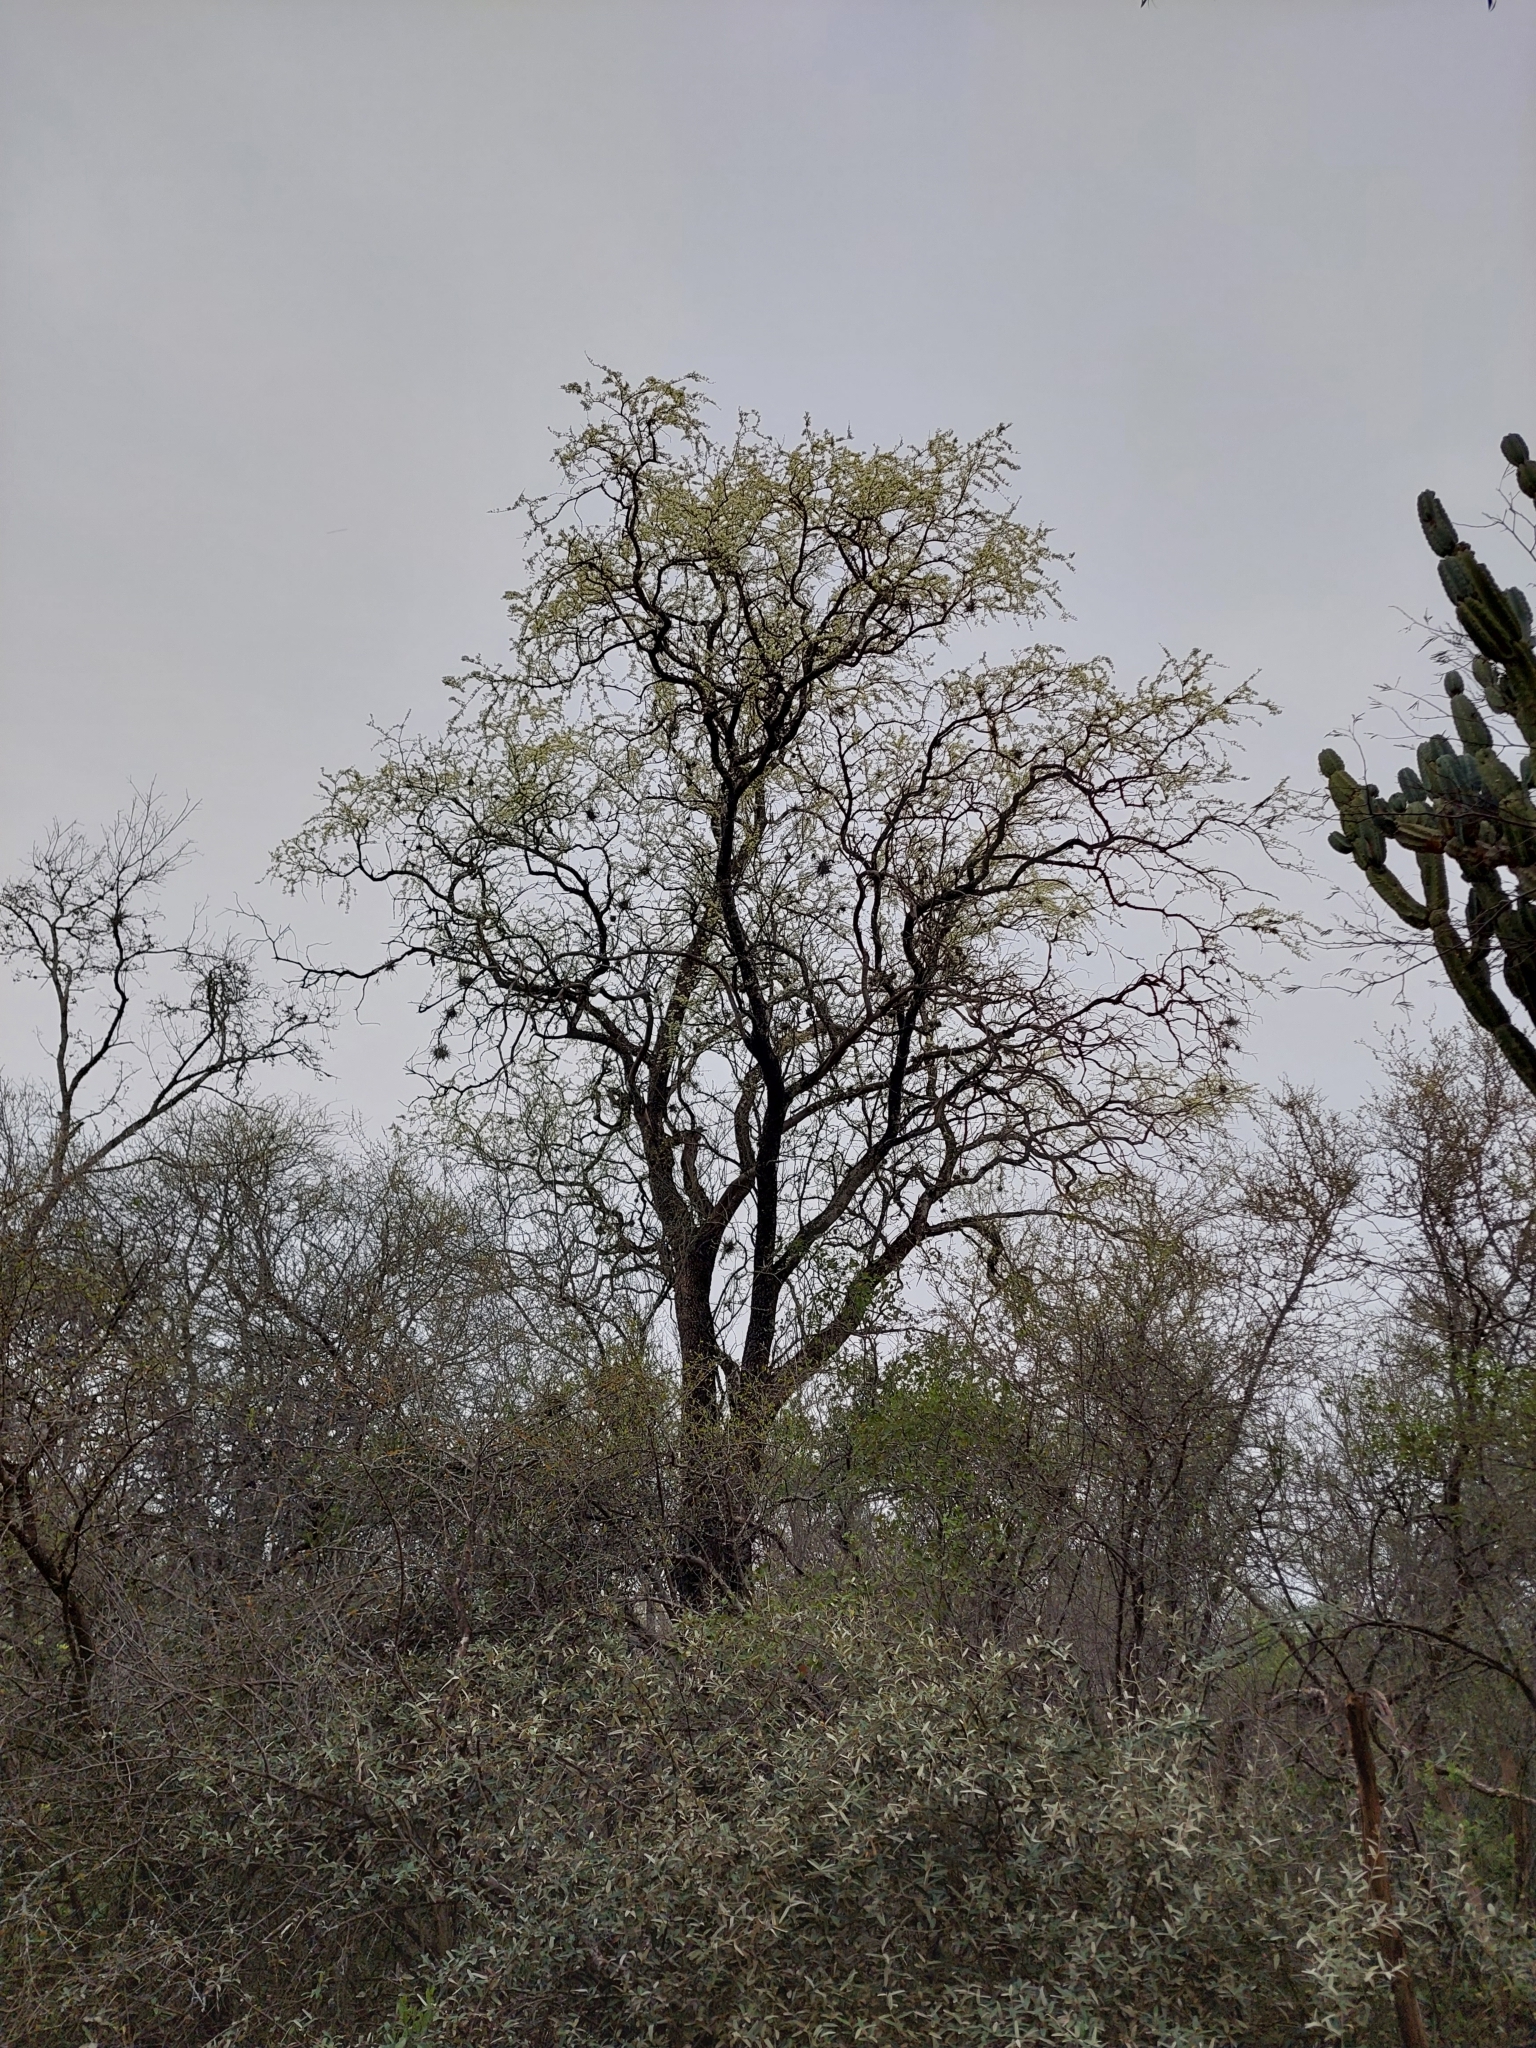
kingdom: Plantae
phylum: Tracheophyta
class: Magnoliopsida
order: Zygophyllales
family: Zygophyllaceae
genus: Gonopterodendron
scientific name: Gonopterodendron sarmientoi
